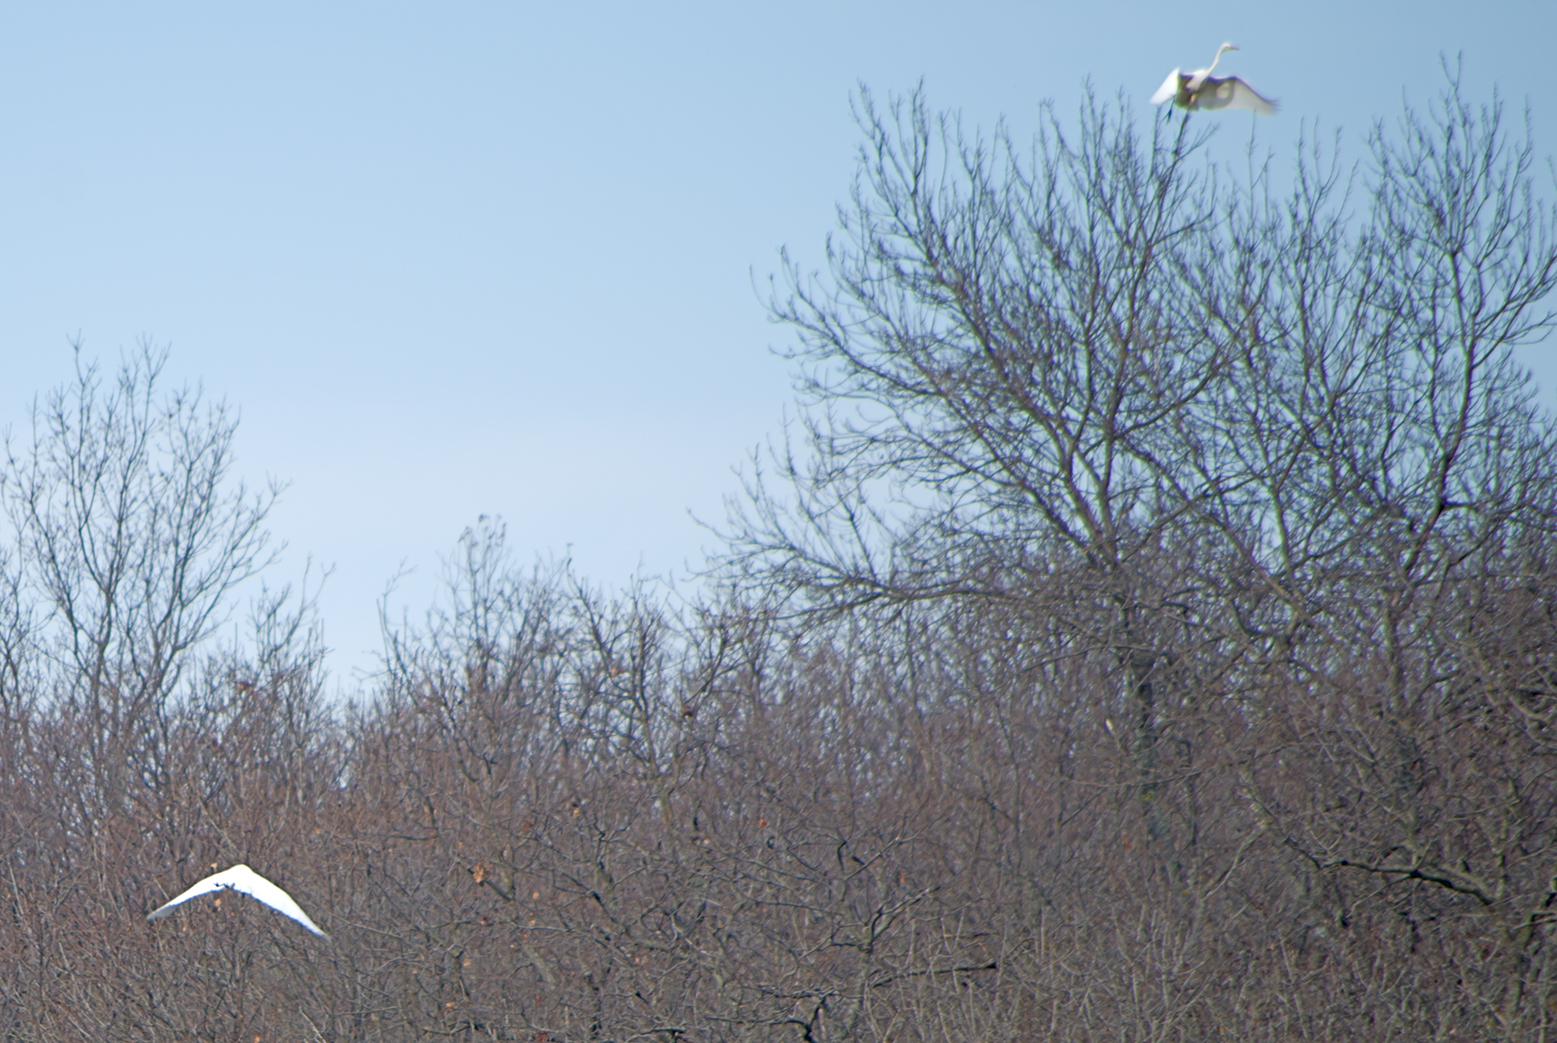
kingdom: Animalia
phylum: Chordata
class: Aves
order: Pelecaniformes
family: Ardeidae
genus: Ardea
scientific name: Ardea alba
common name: Great egret
